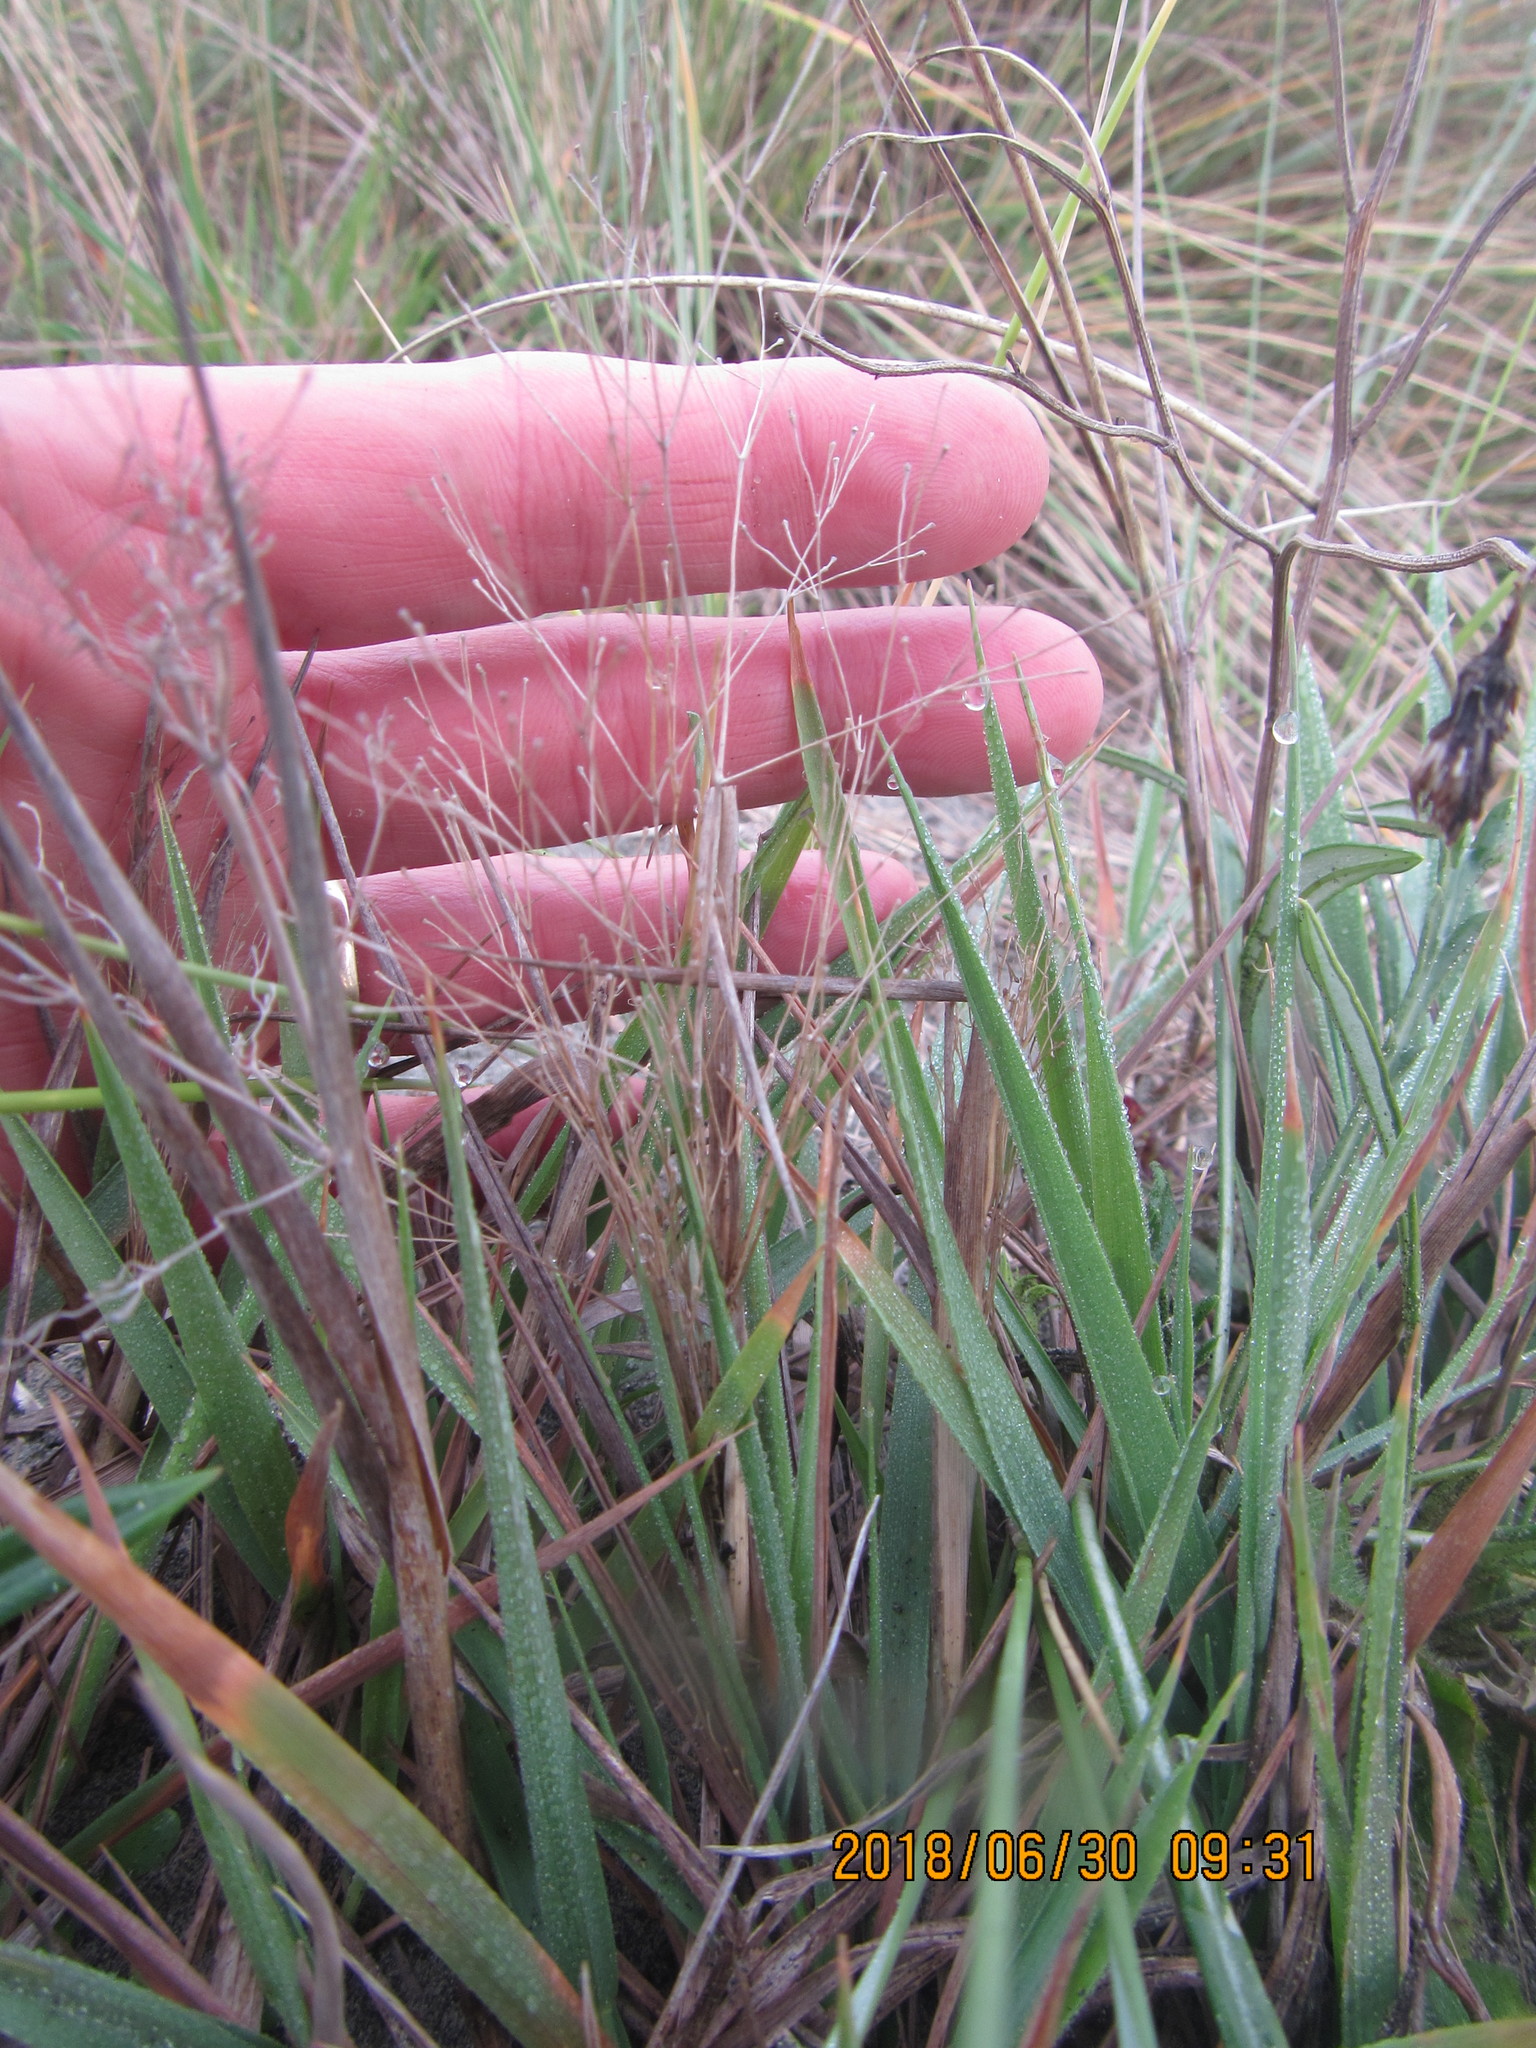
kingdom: Plantae
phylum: Tracheophyta
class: Liliopsida
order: Poales
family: Poaceae
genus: Lachnagrostis
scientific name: Lachnagrostis billardierei
